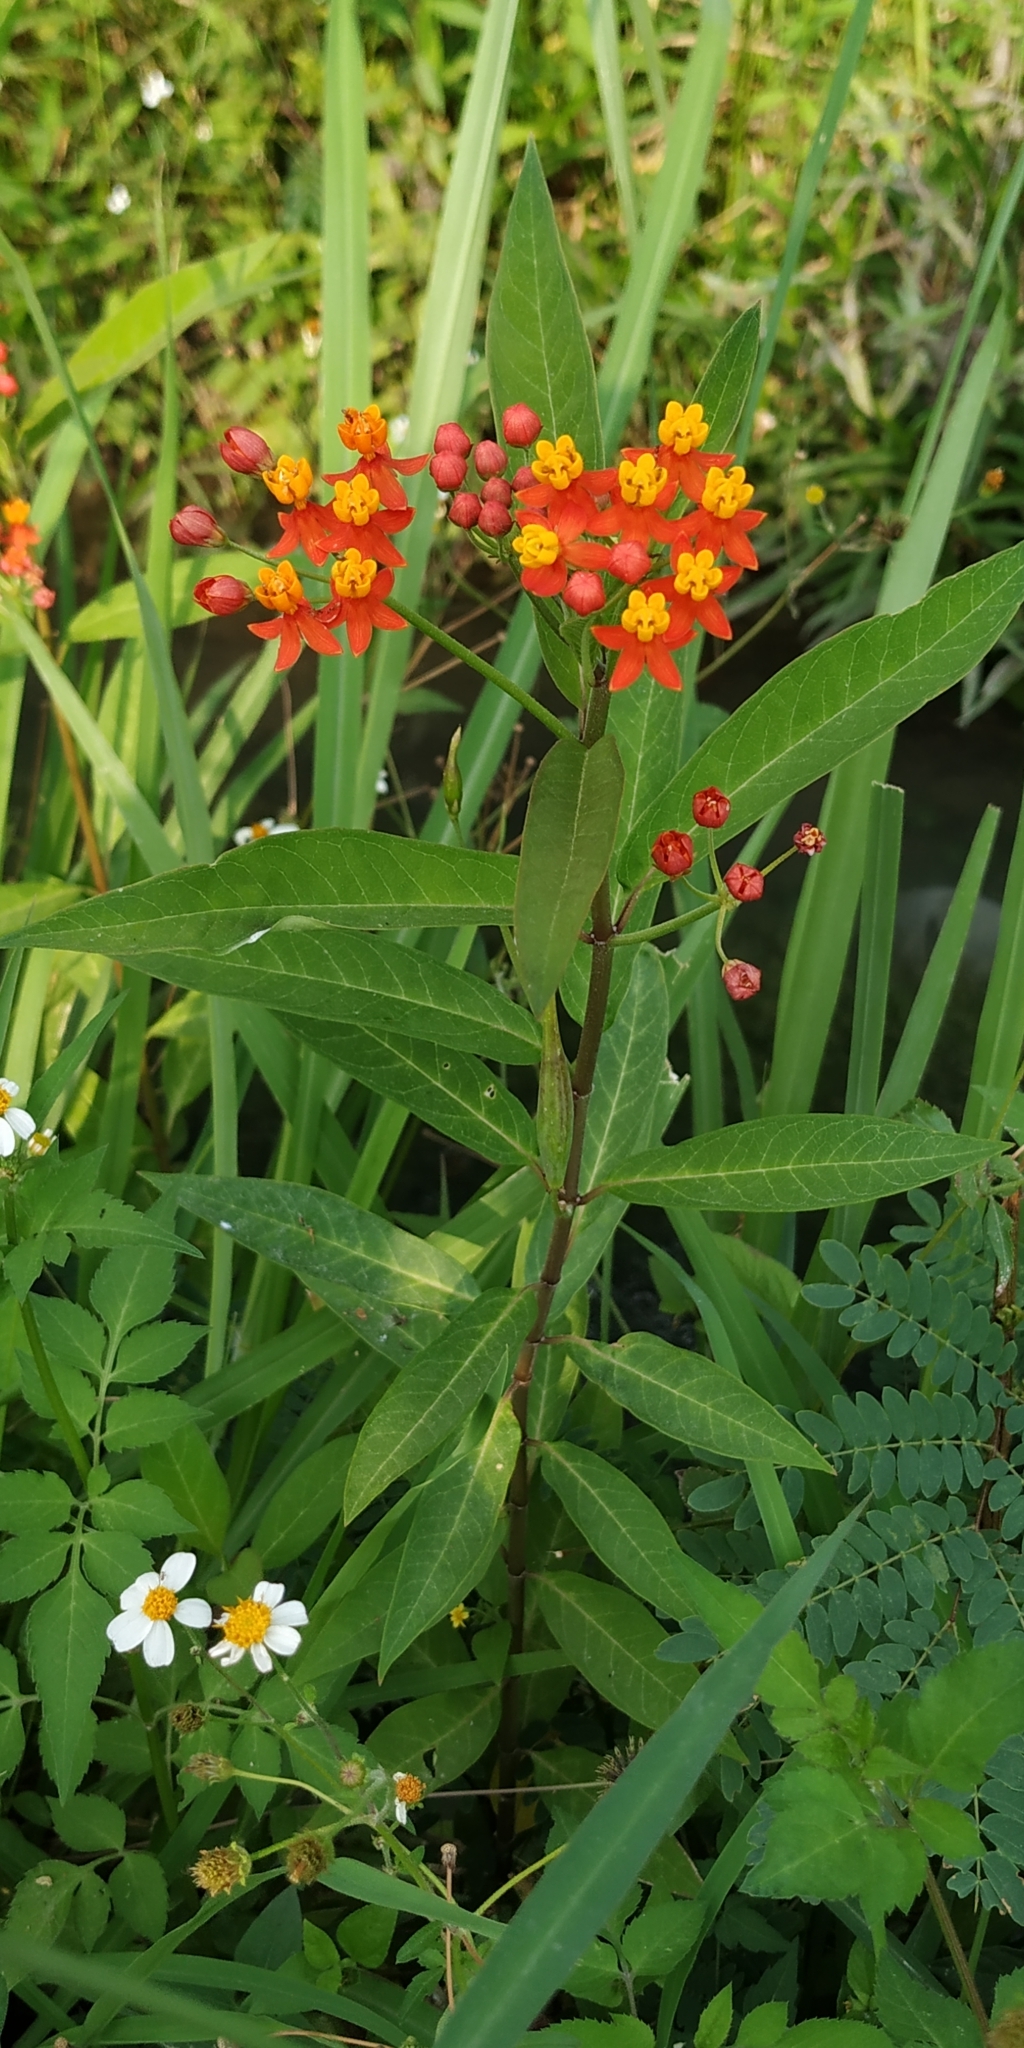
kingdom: Plantae
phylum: Tracheophyta
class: Magnoliopsida
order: Gentianales
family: Apocynaceae
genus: Asclepias
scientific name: Asclepias curassavica
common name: Bloodflower
